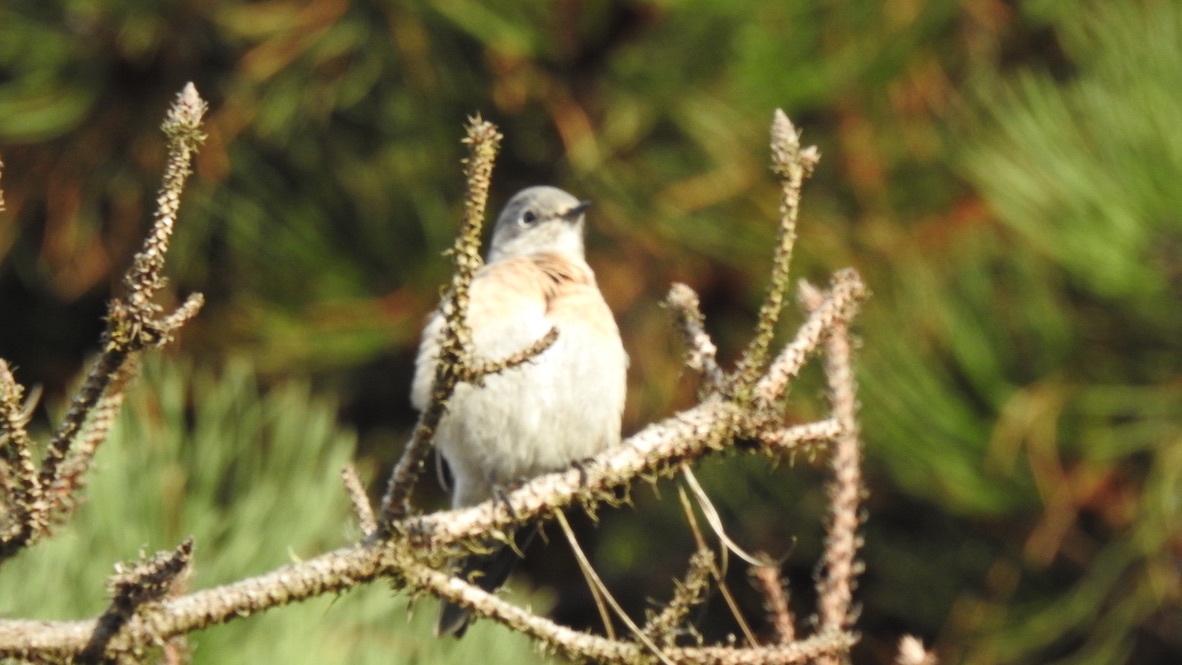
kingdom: Animalia
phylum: Chordata
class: Aves
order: Passeriformes
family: Turdidae
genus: Sialia
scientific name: Sialia mexicana
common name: Western bluebird
